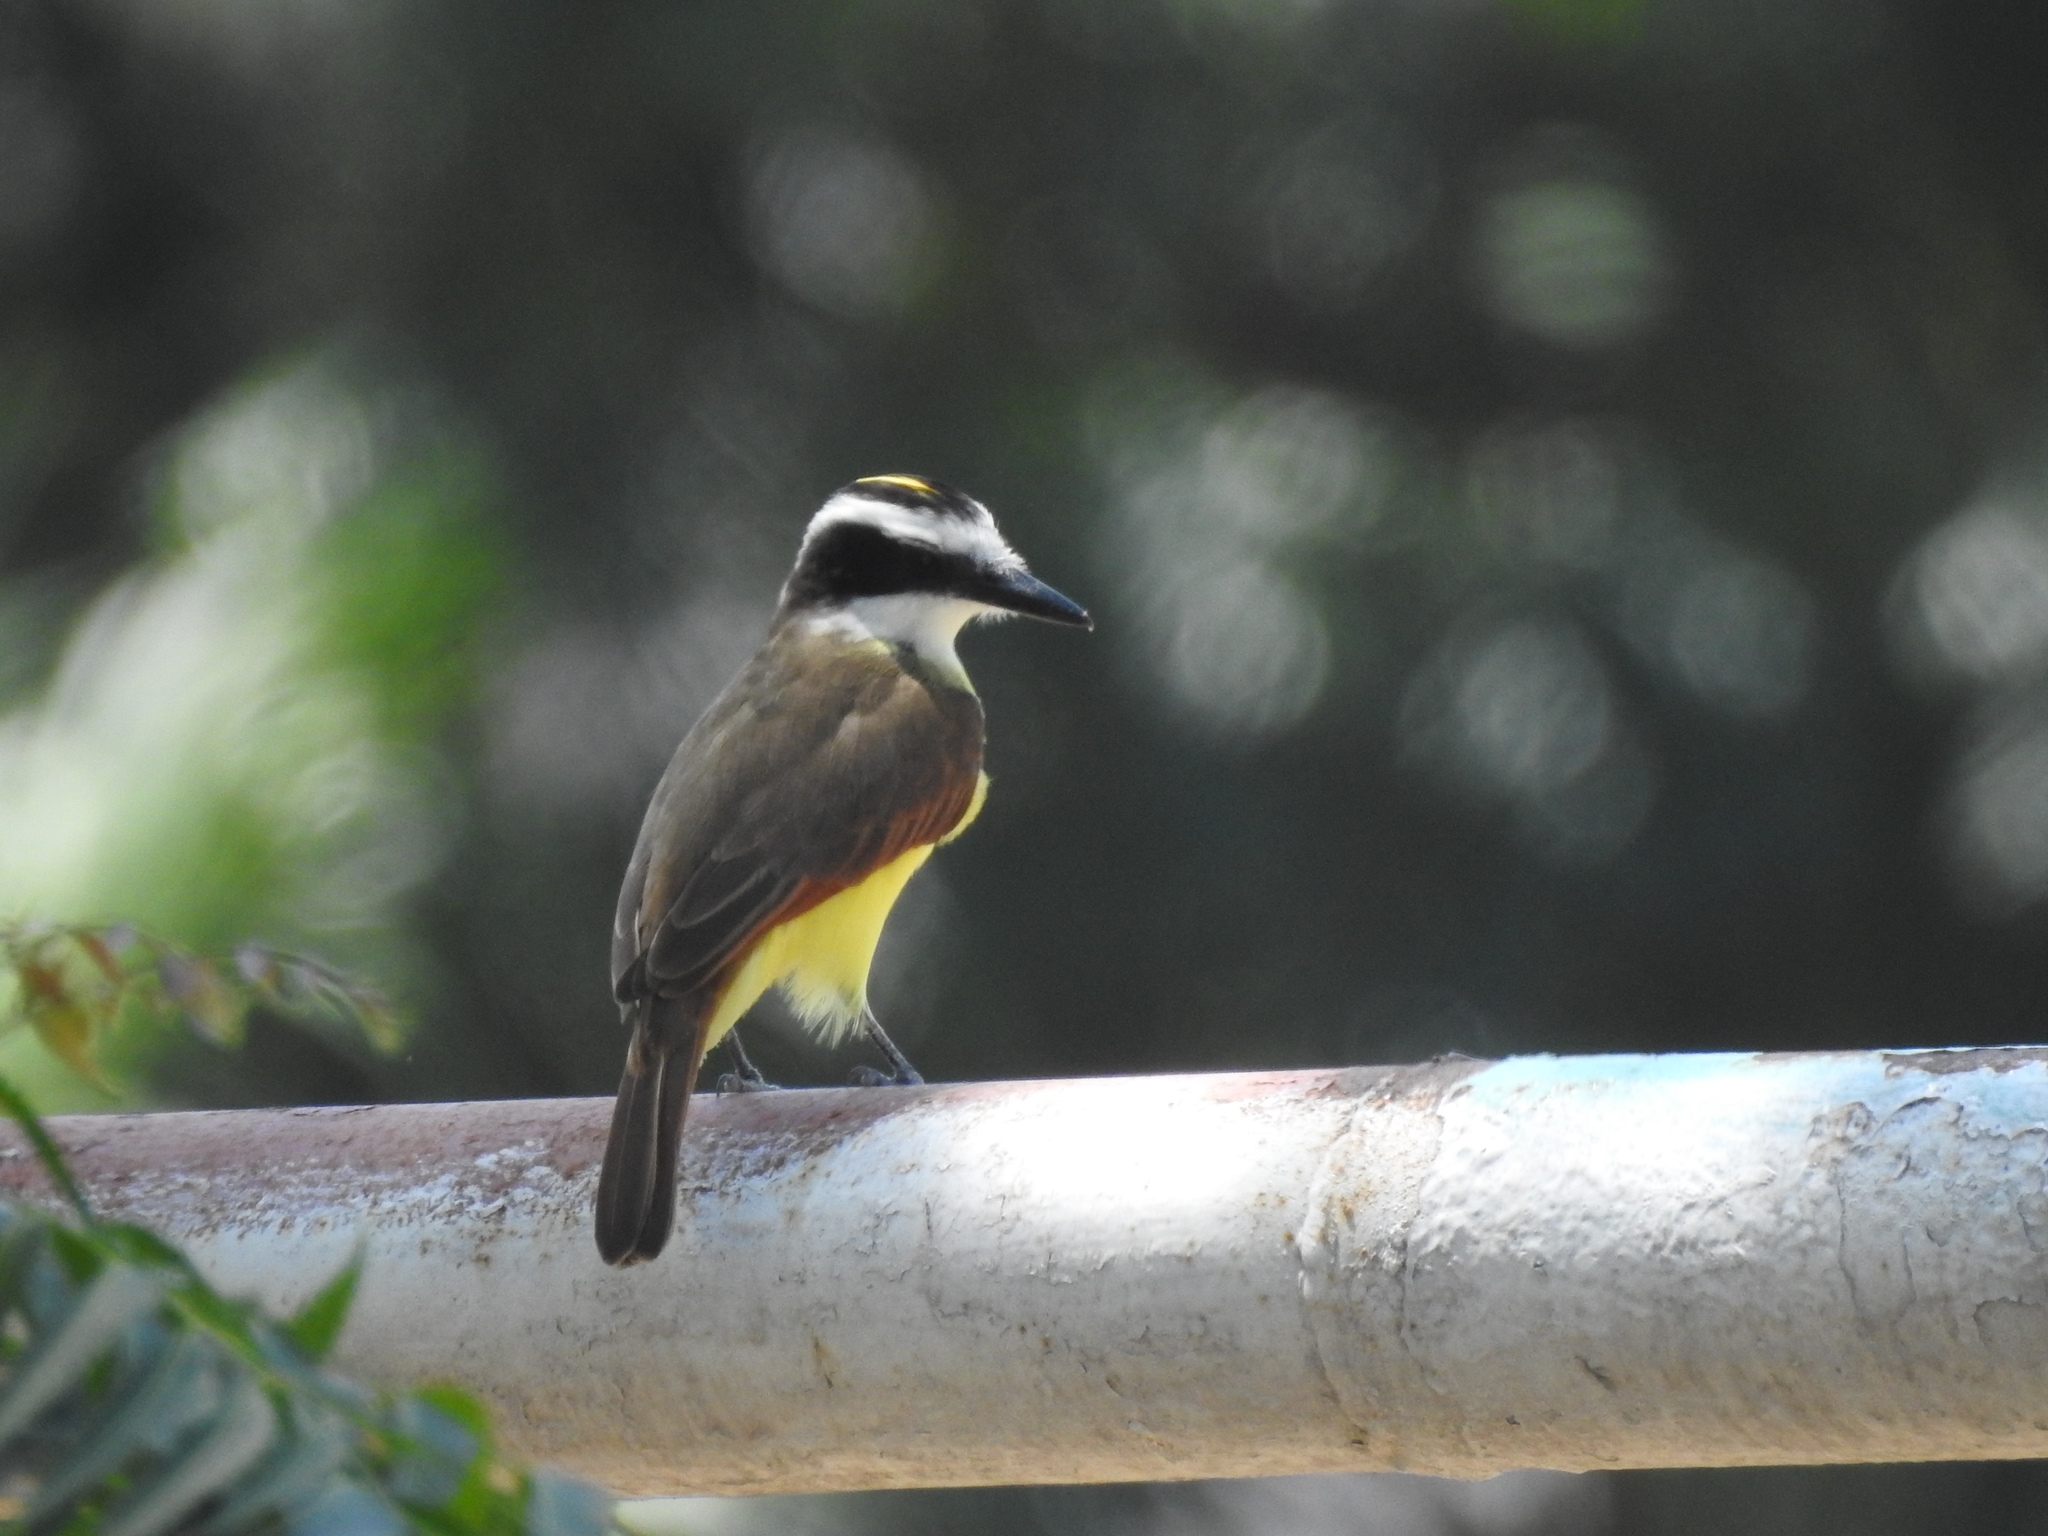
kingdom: Animalia
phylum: Chordata
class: Aves
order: Passeriformes
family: Tyrannidae
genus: Pitangus
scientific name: Pitangus sulphuratus
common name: Great kiskadee
